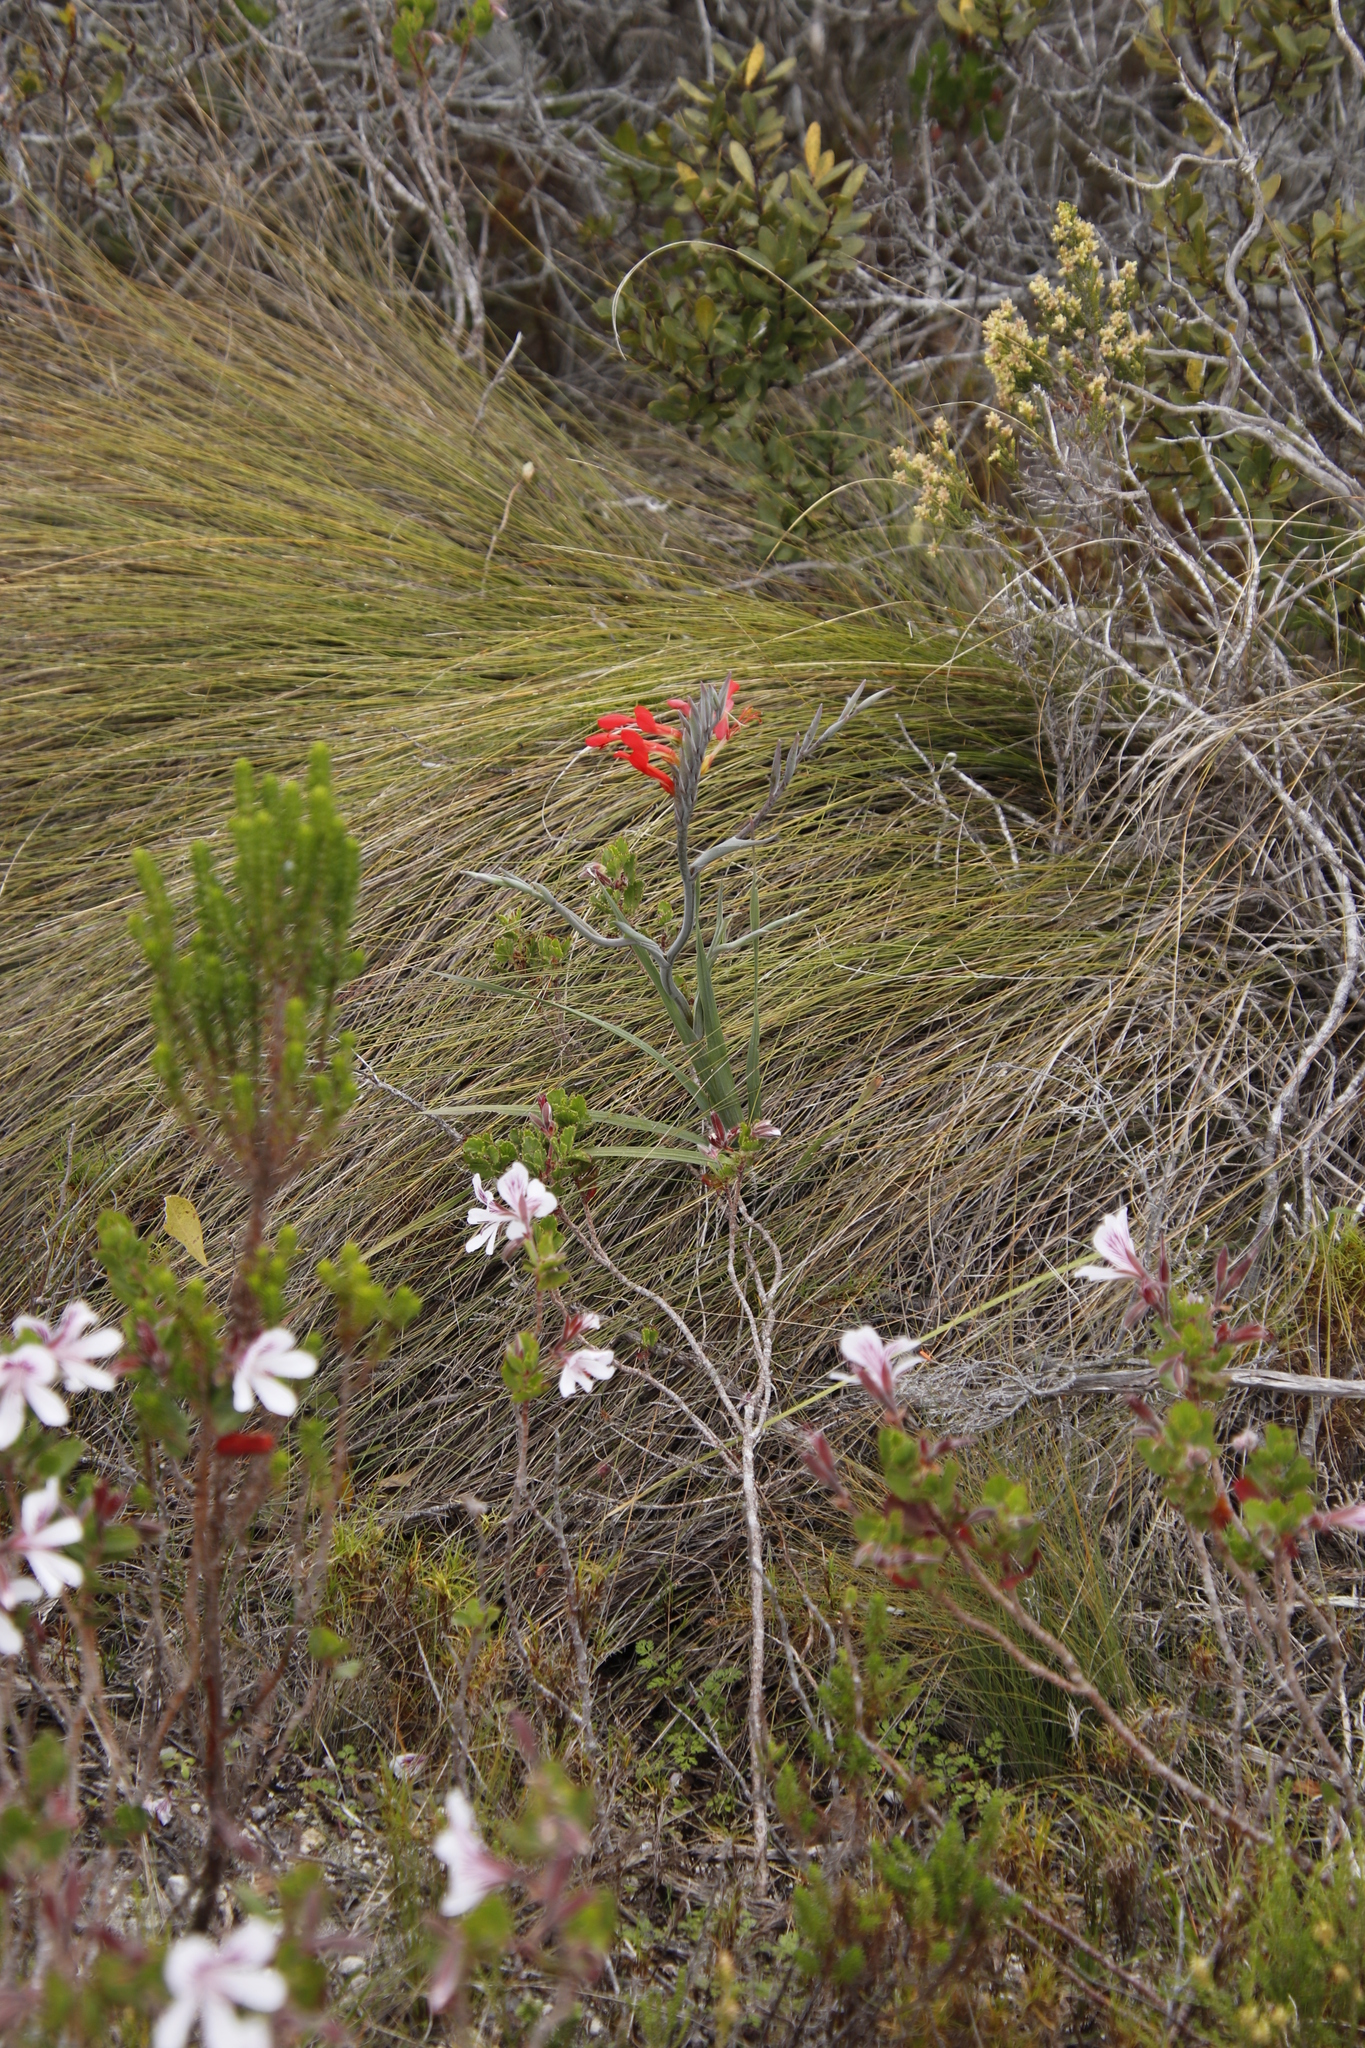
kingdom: Plantae
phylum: Tracheophyta
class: Liliopsida
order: Asparagales
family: Iridaceae
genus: Gladiolus
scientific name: Gladiolus cunonius
